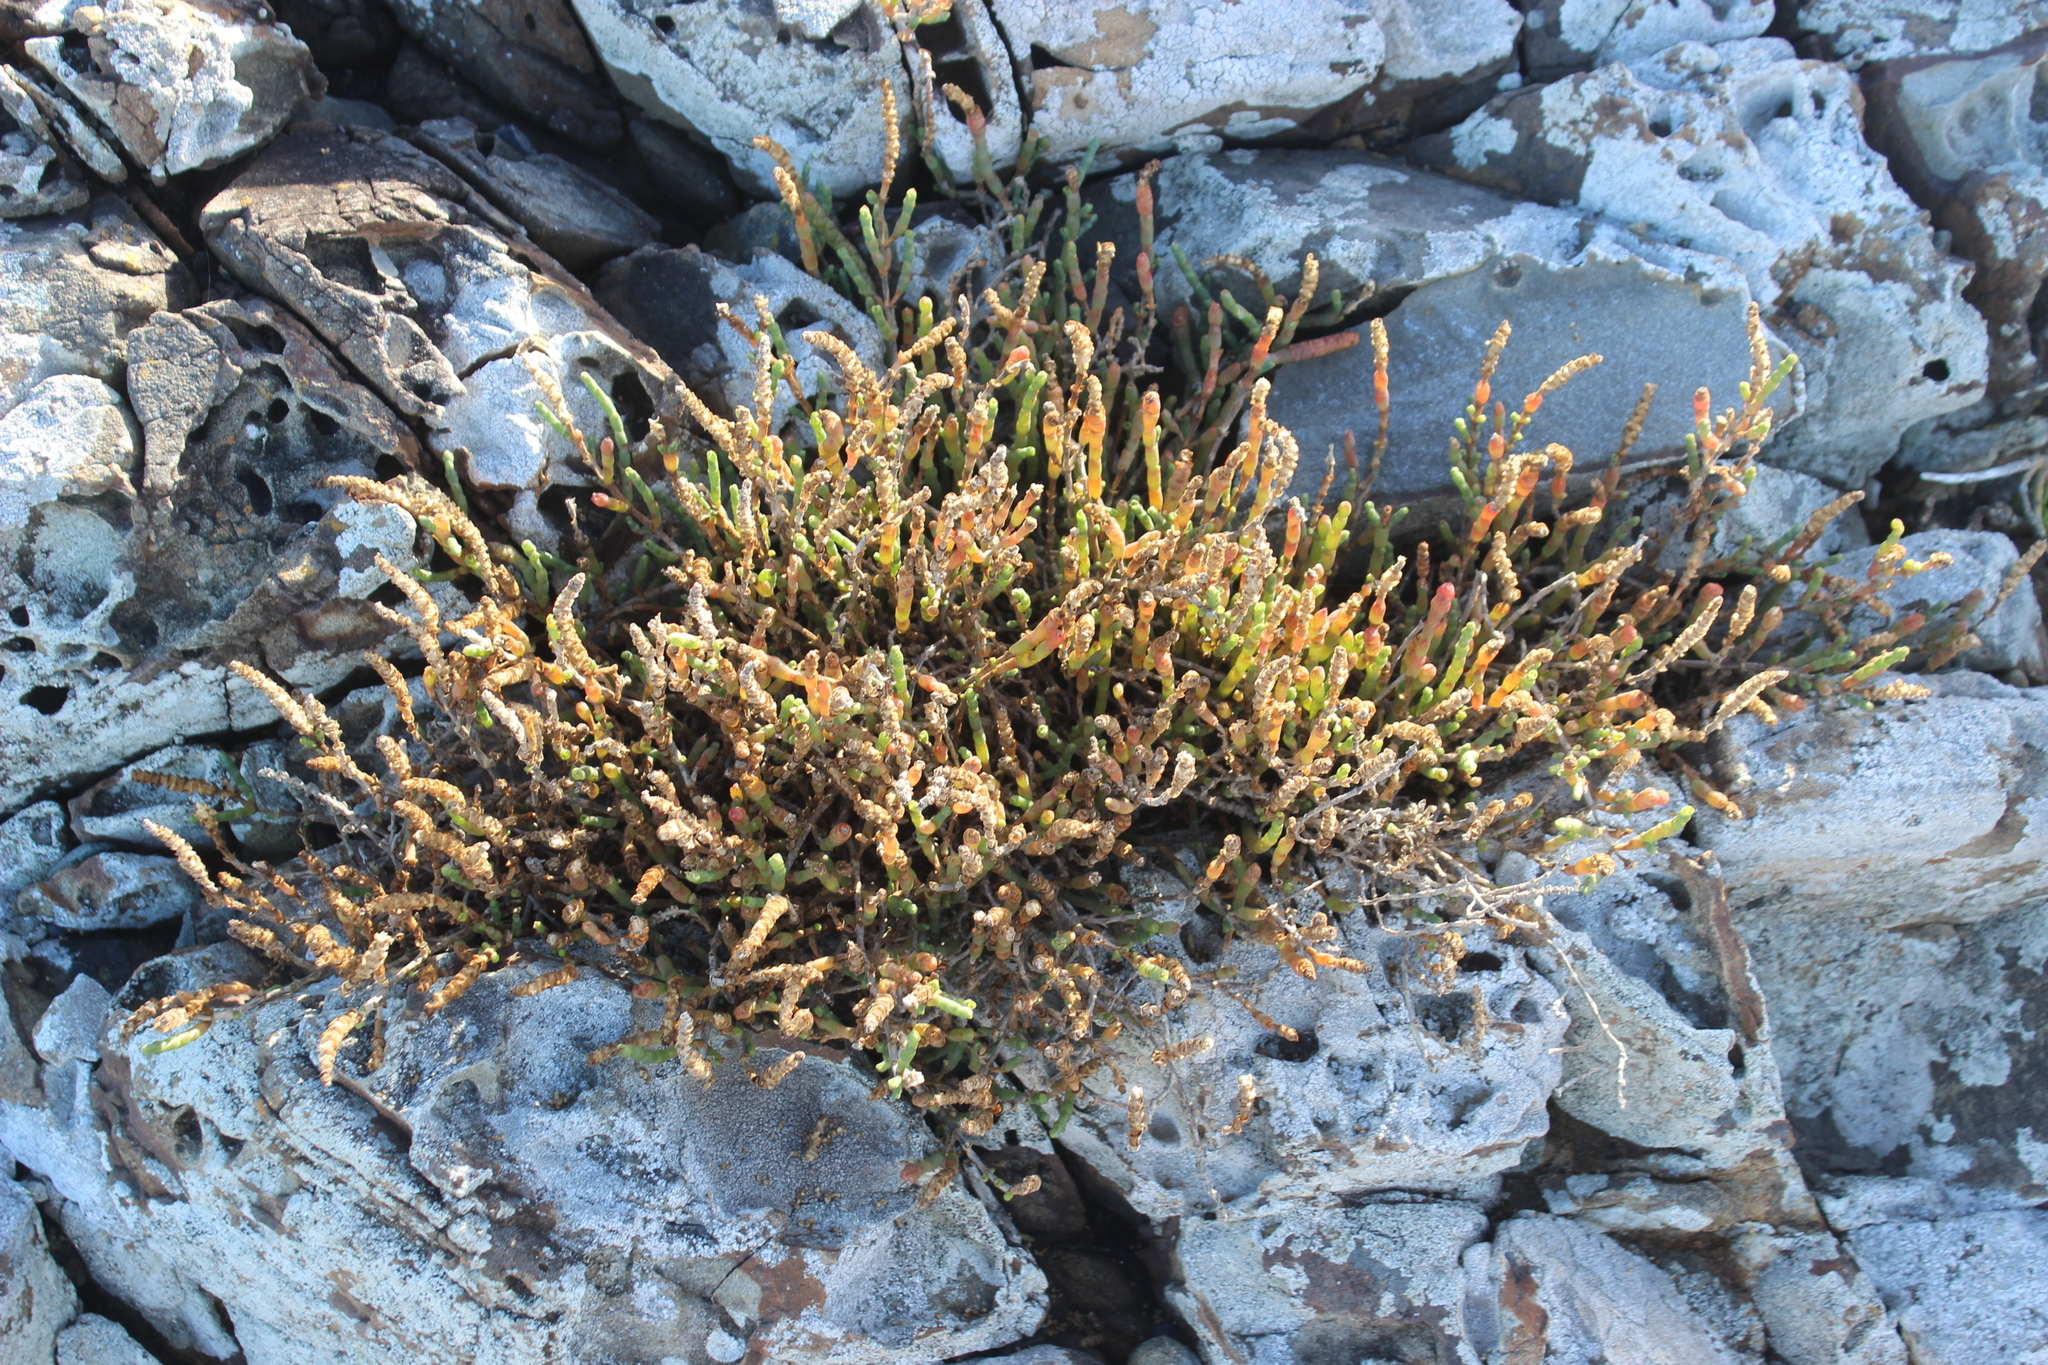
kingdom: Plantae
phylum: Tracheophyta
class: Magnoliopsida
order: Caryophyllales
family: Amaranthaceae
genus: Salicornia
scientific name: Salicornia quinqueflora
